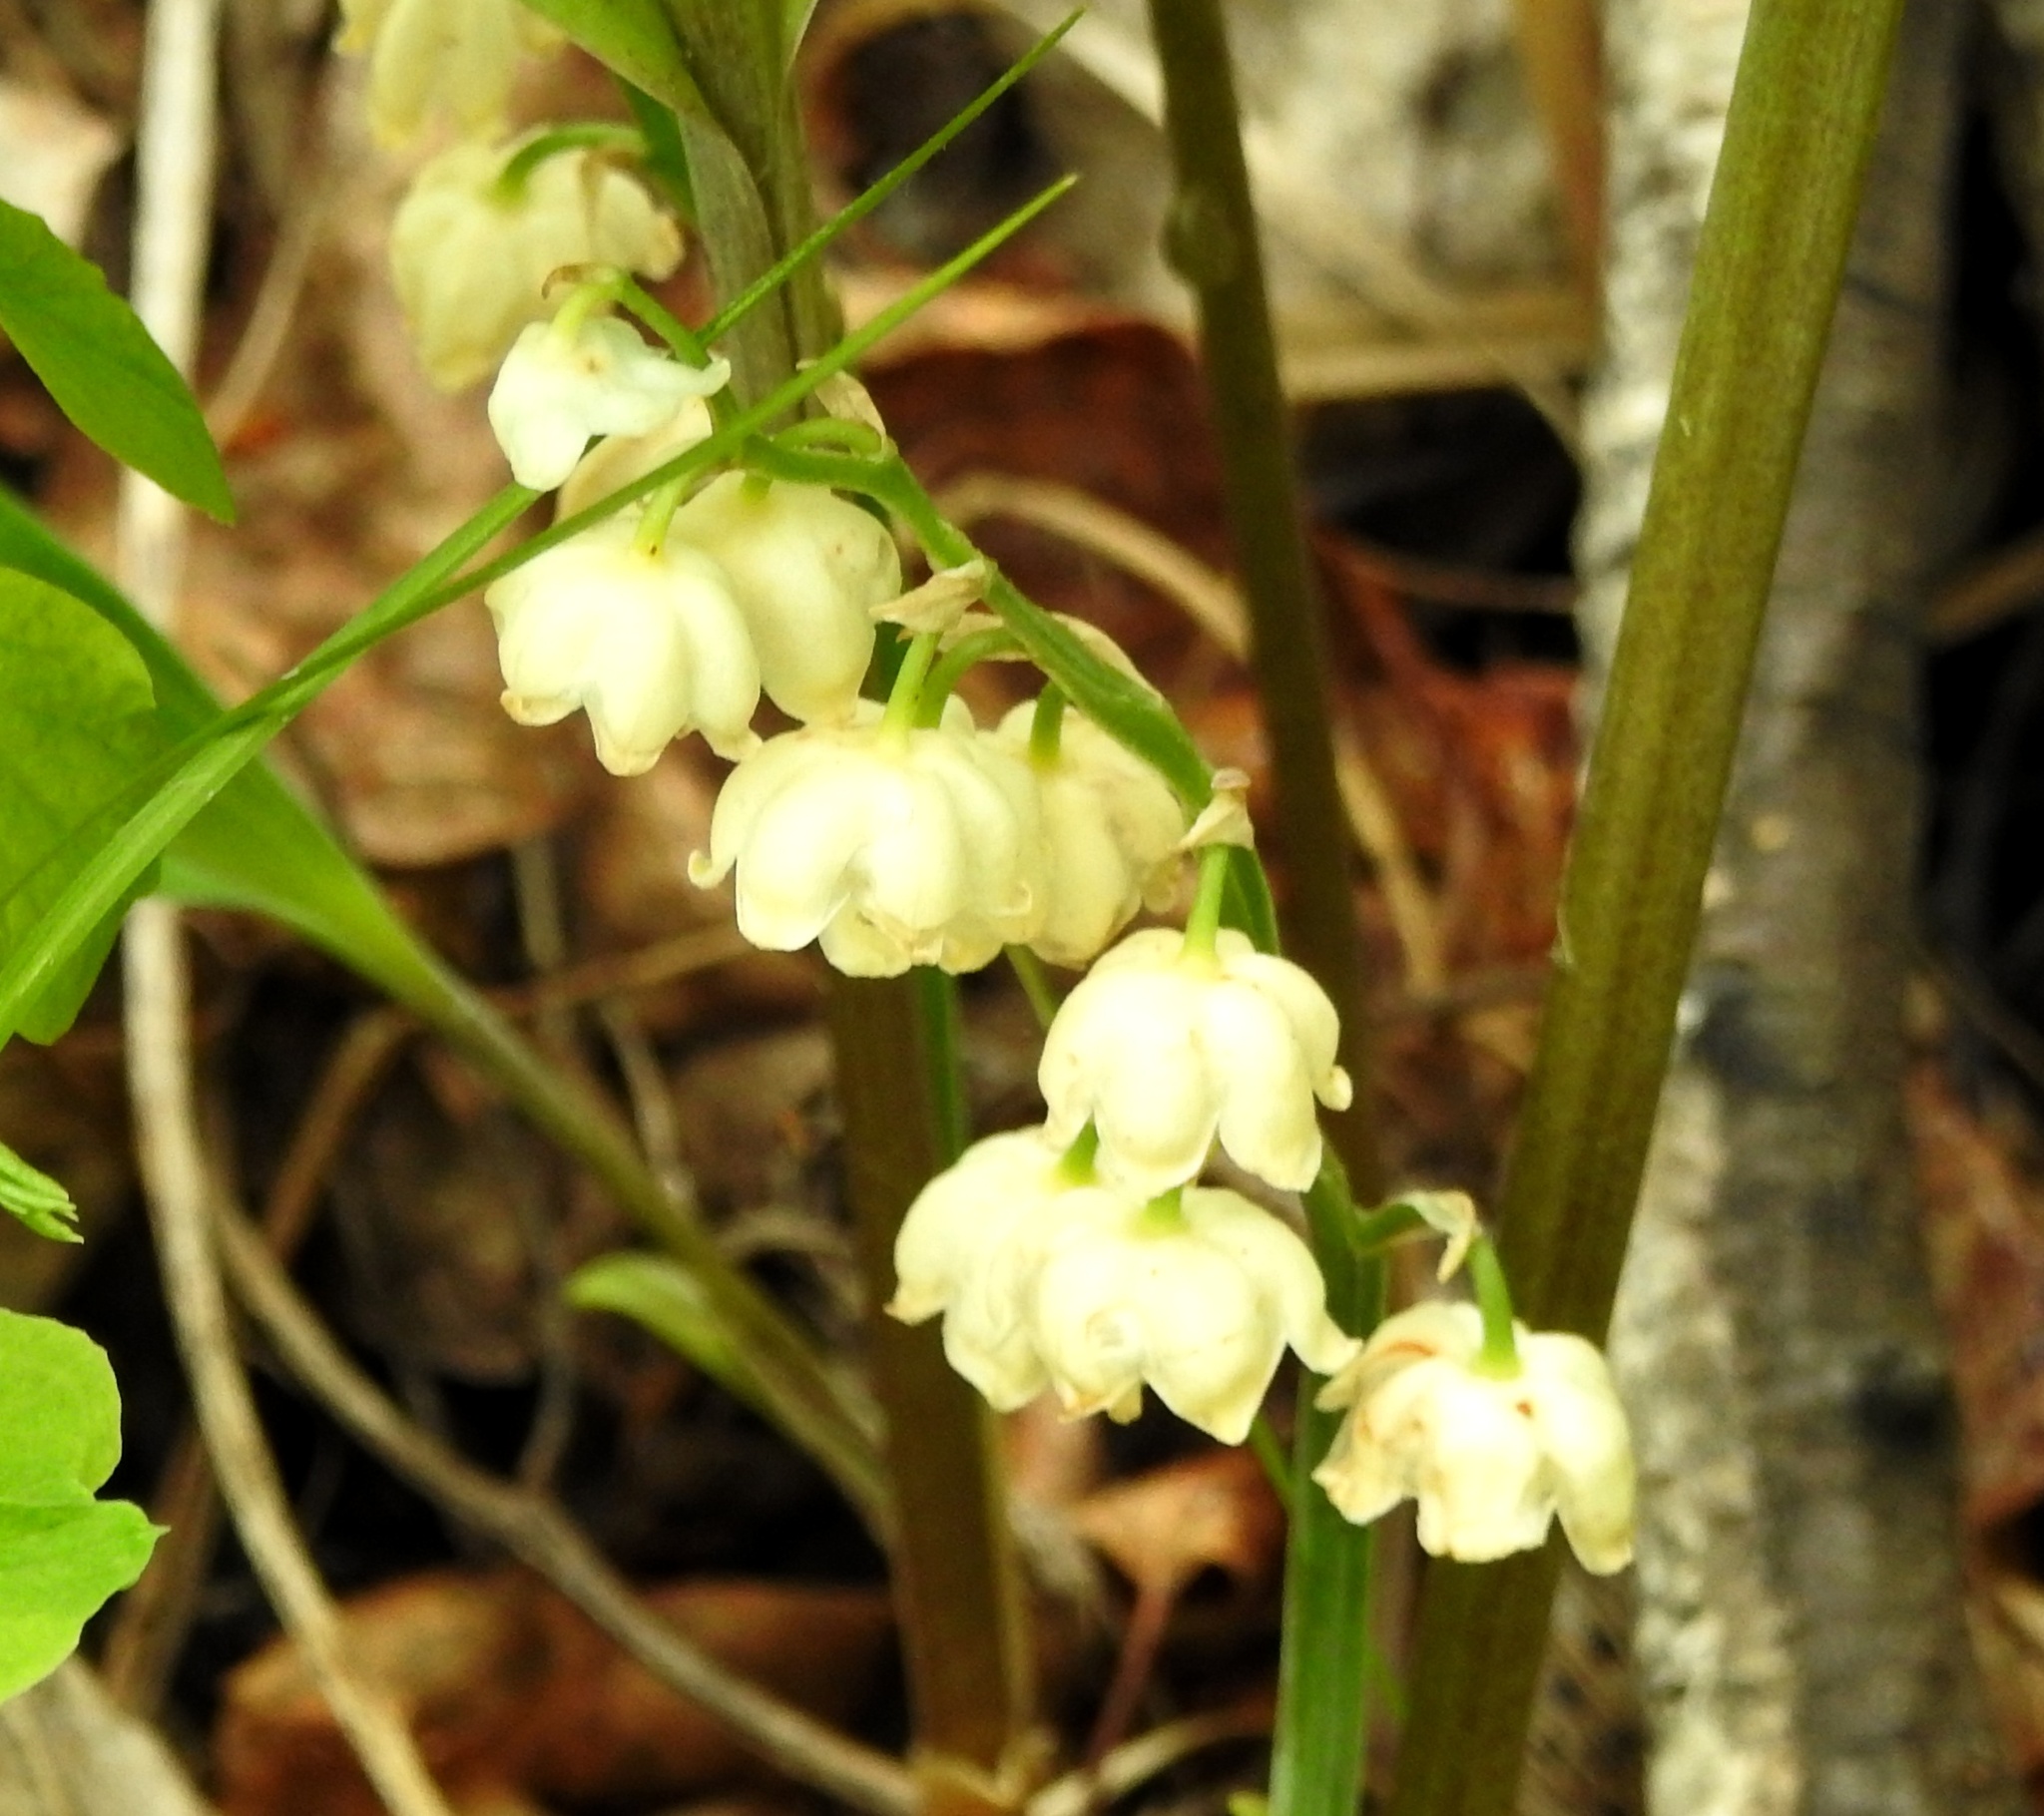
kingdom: Plantae
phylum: Tracheophyta
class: Liliopsida
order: Asparagales
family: Asparagaceae
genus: Convallaria
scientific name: Convallaria keiskei
